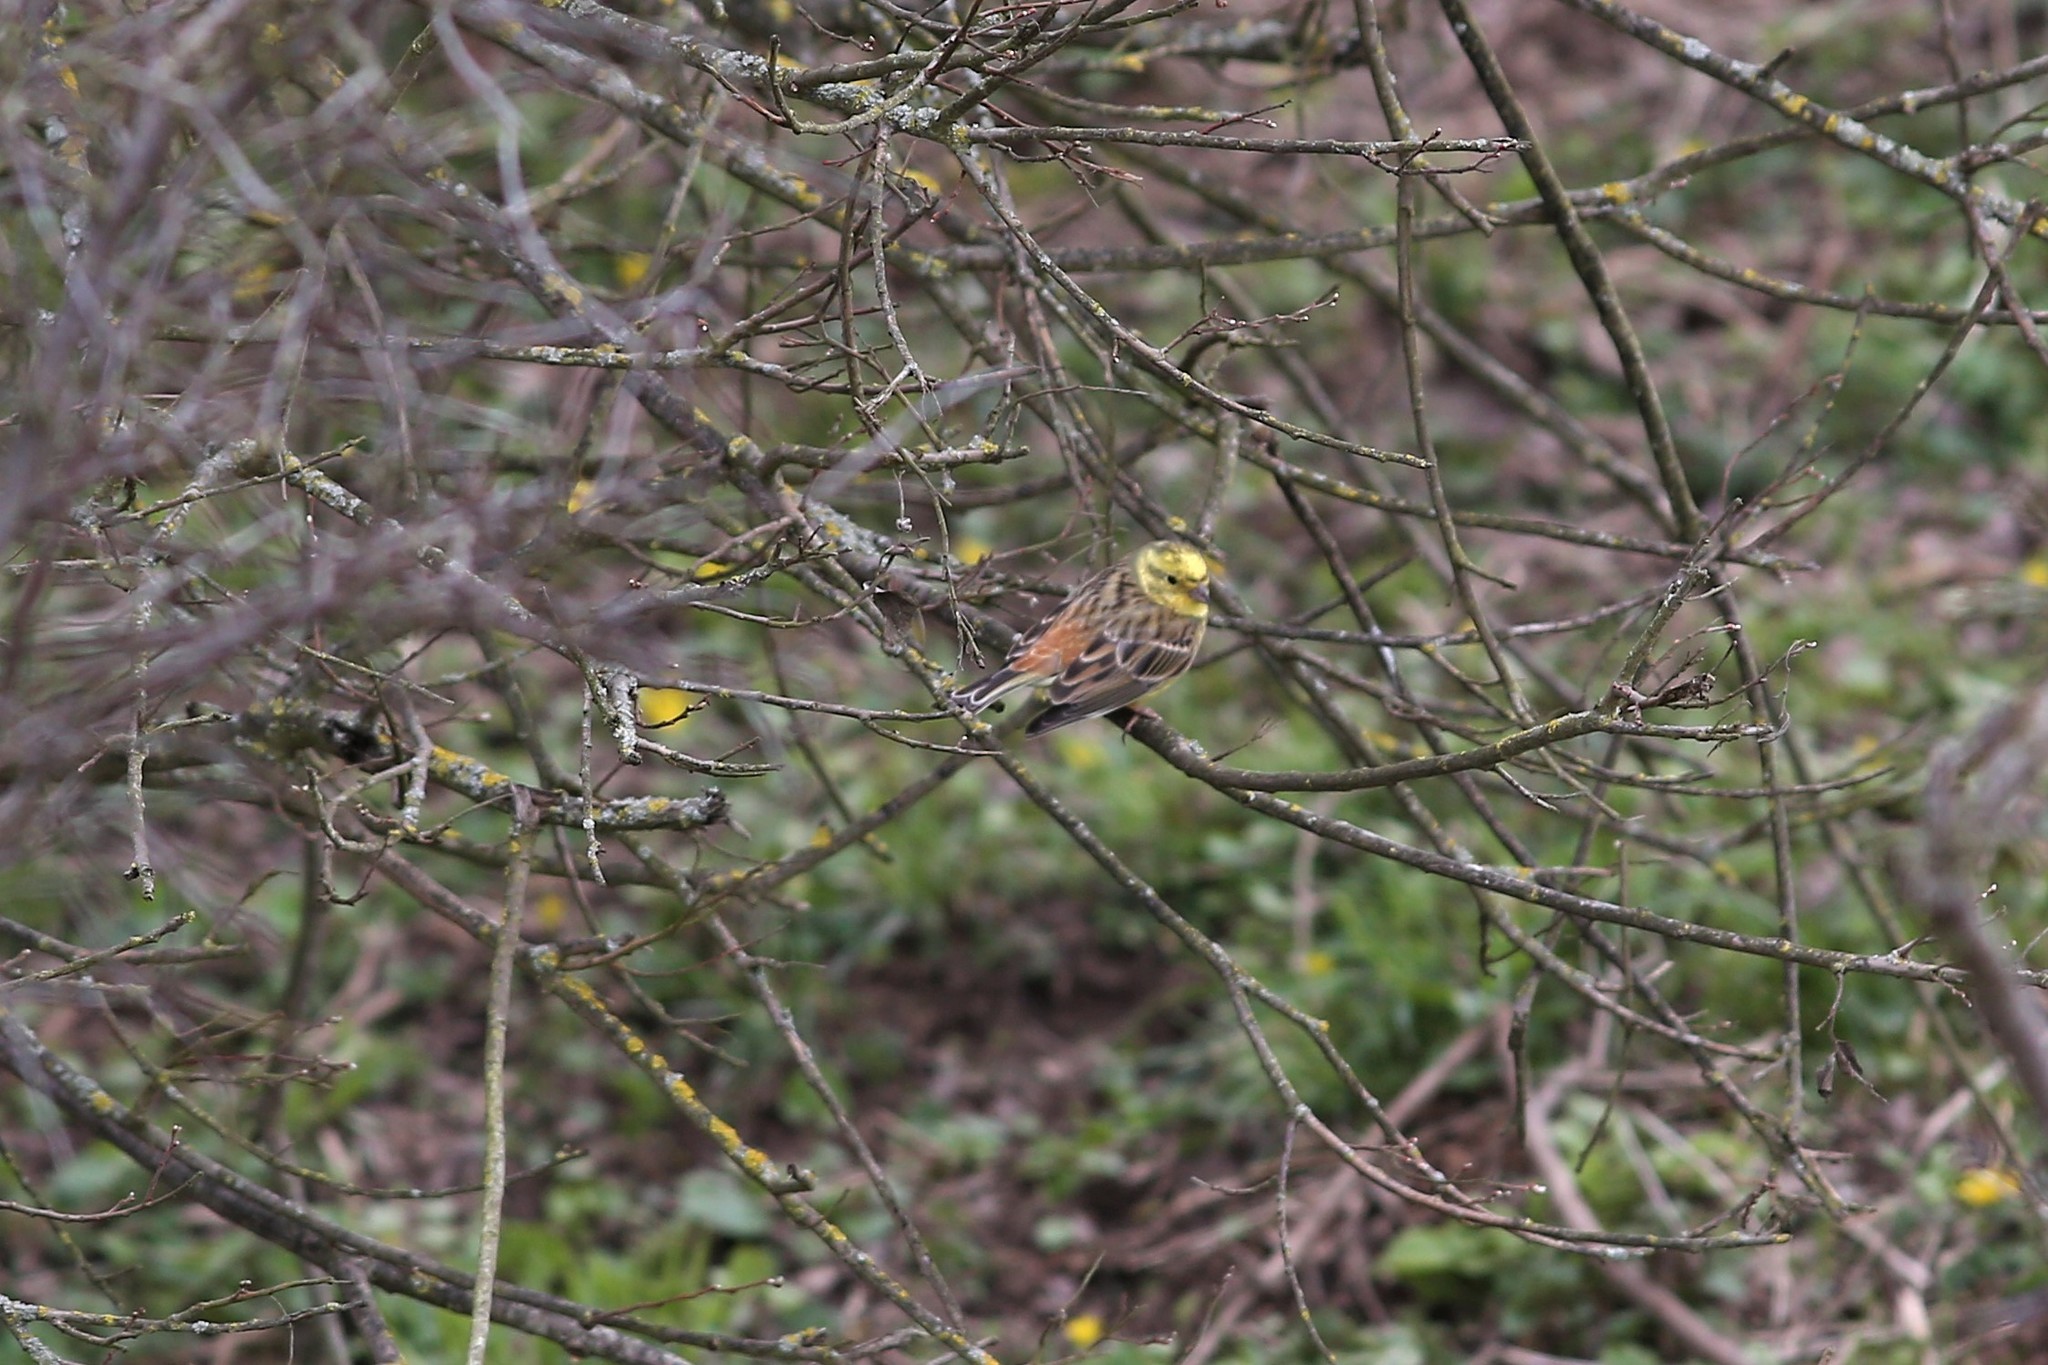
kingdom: Animalia
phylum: Chordata
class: Aves
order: Passeriformes
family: Emberizidae
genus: Emberiza
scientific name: Emberiza citrinella
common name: Yellowhammer
